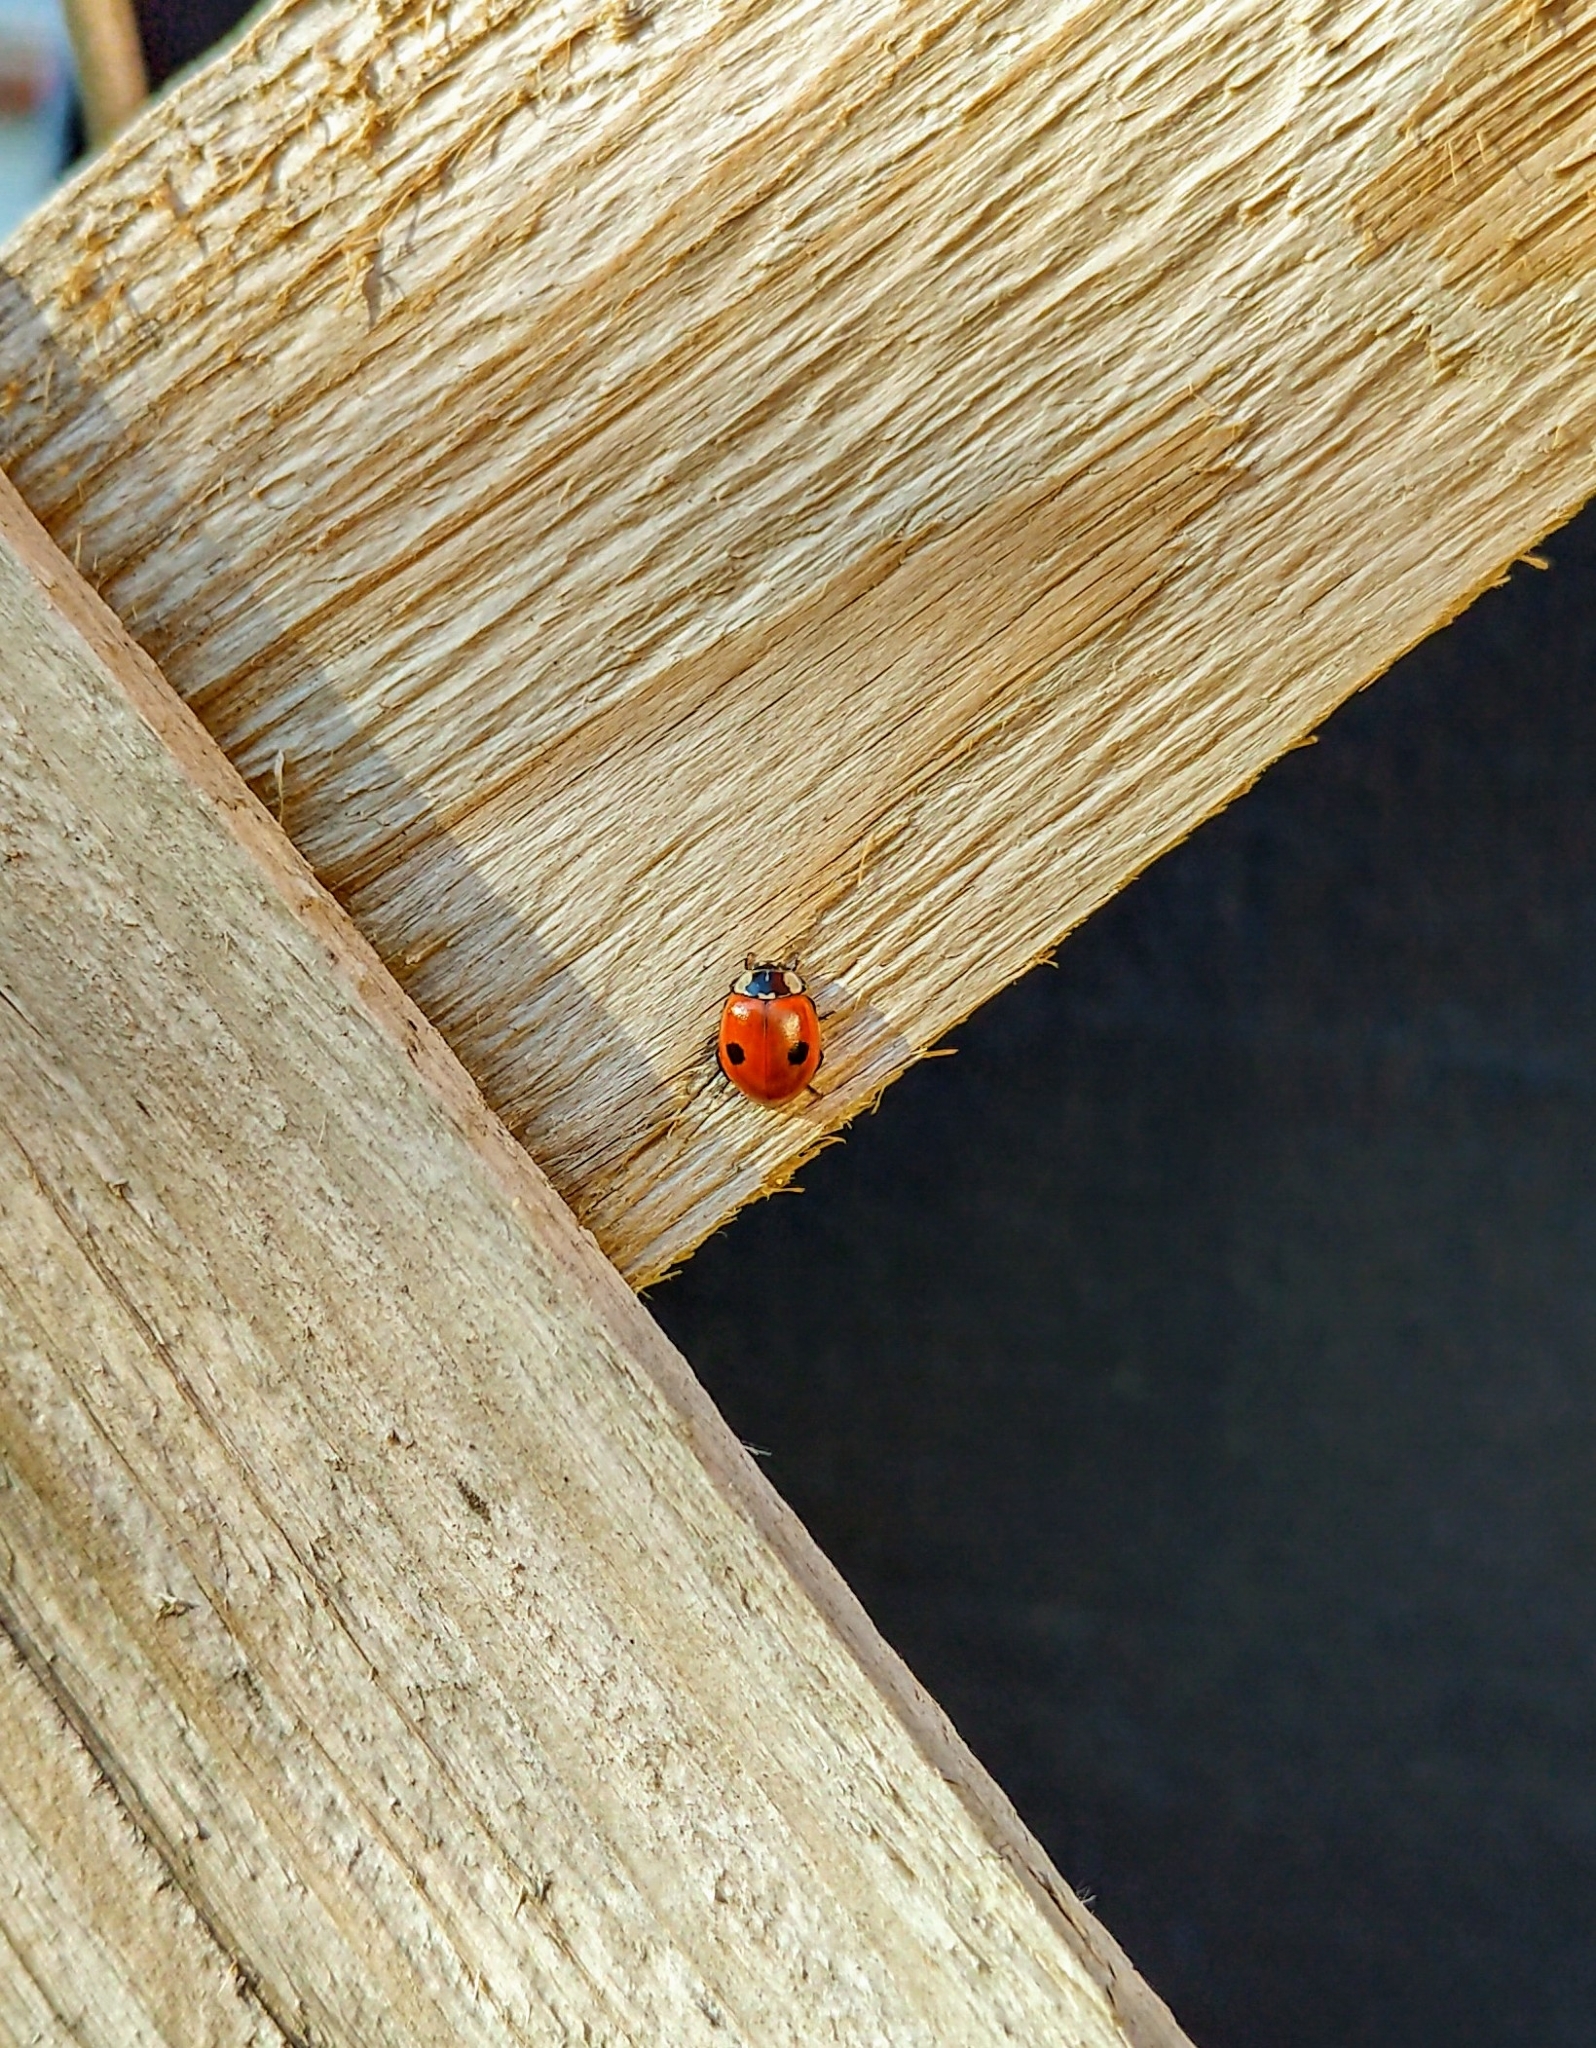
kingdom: Animalia
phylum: Arthropoda
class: Insecta
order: Coleoptera
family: Coccinellidae
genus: Adalia
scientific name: Adalia bipunctata
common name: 2-spot ladybird
